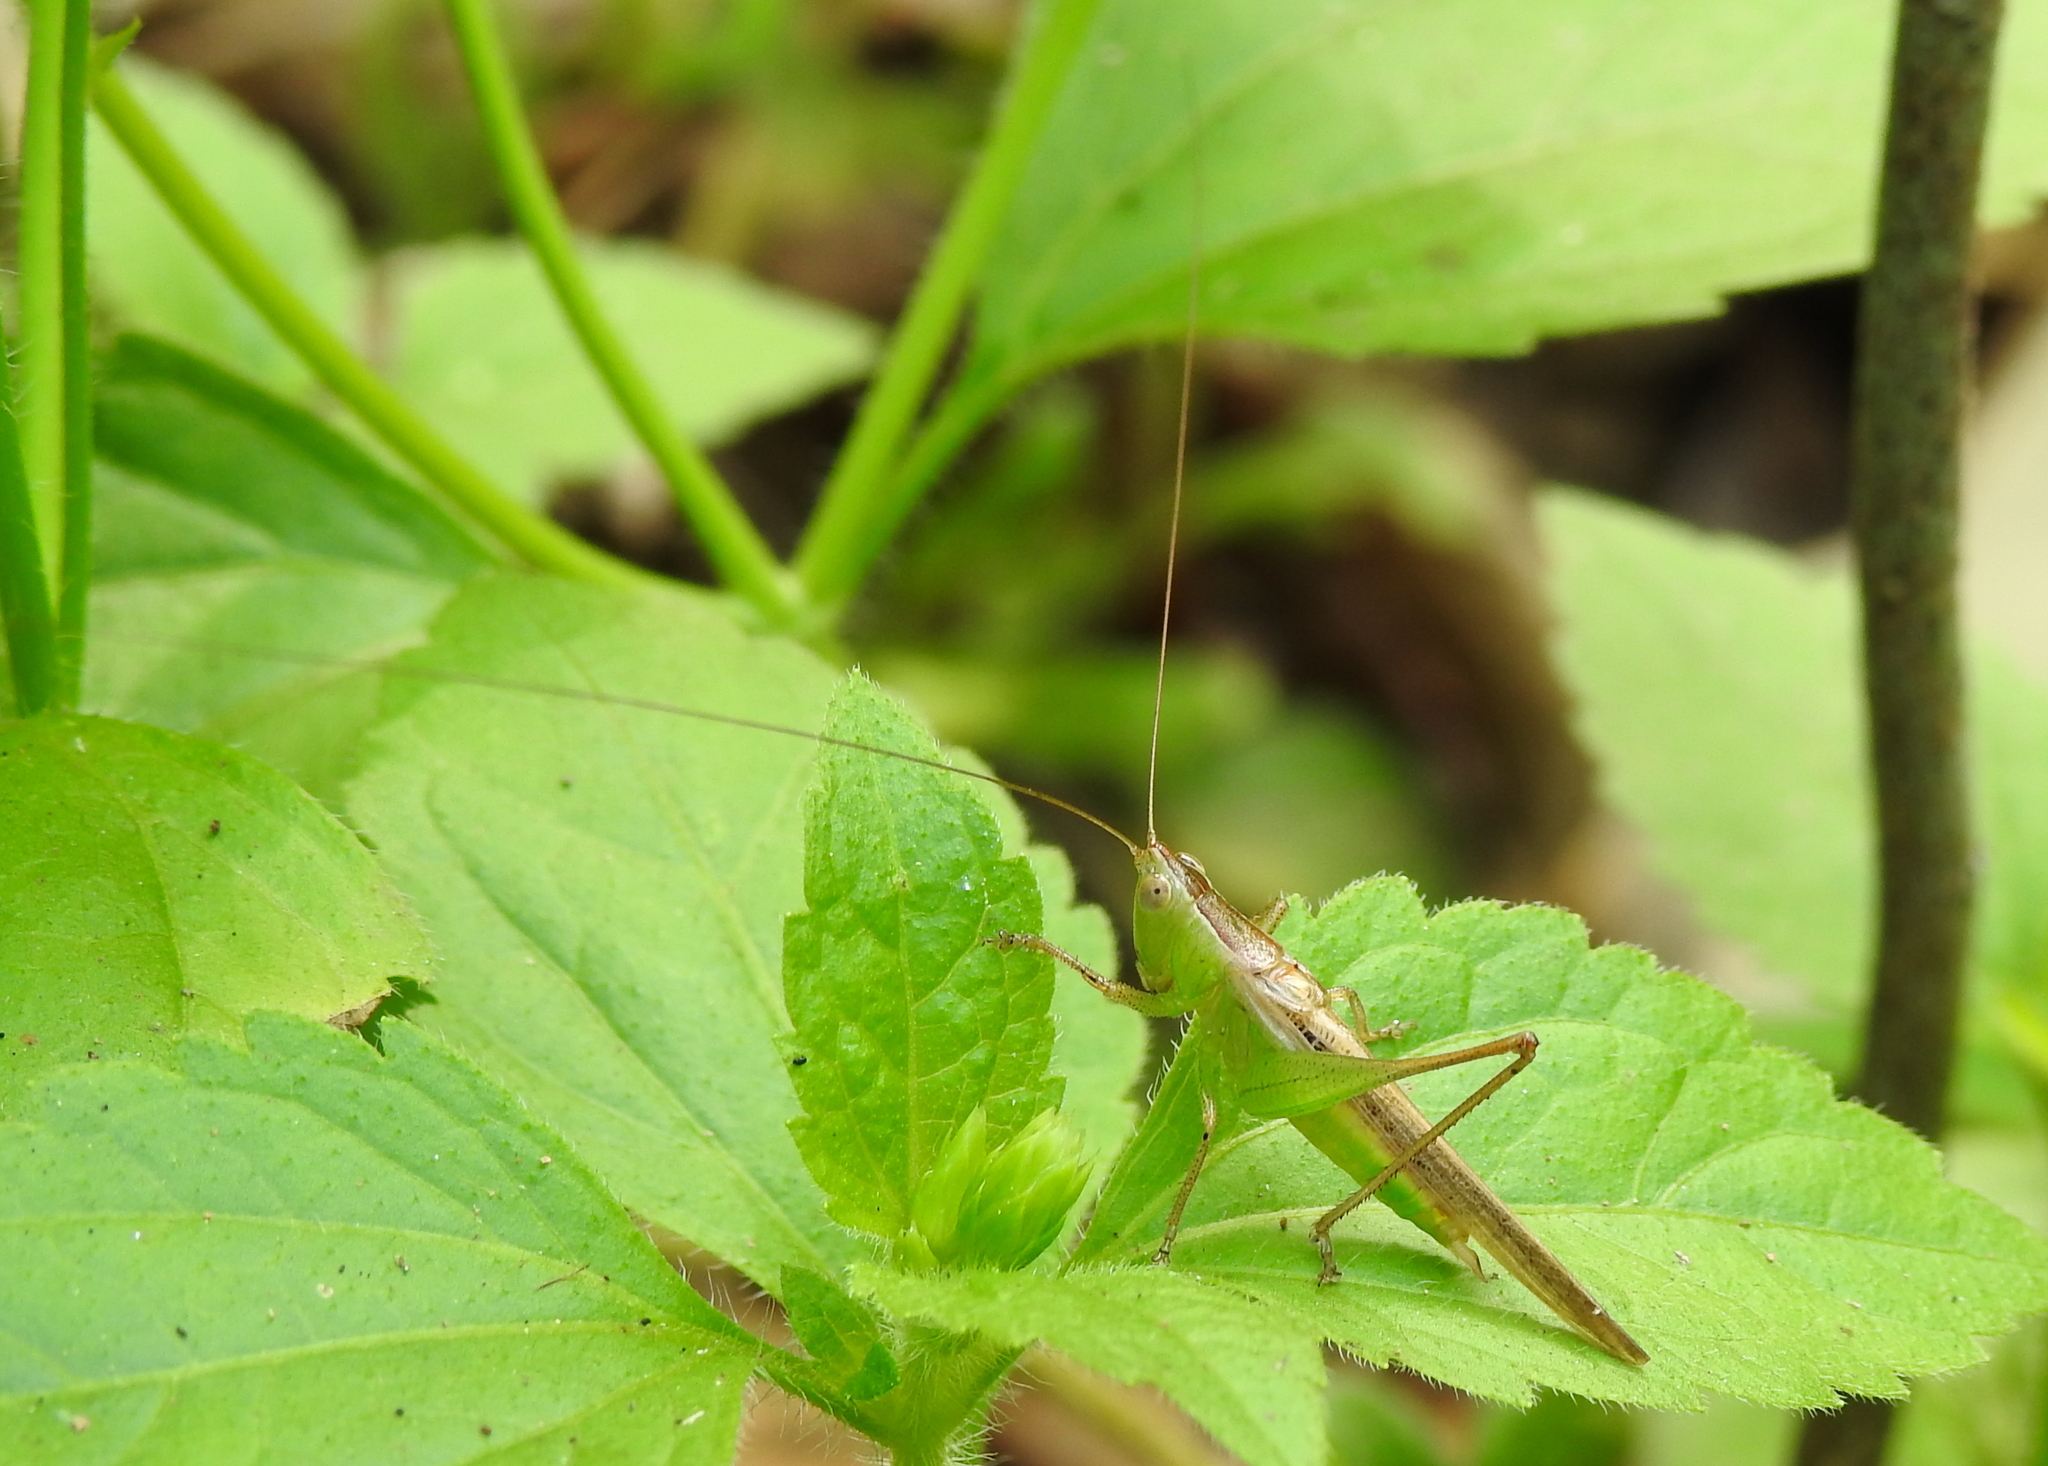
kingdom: Animalia
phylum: Arthropoda
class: Insecta
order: Orthoptera
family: Tettigoniidae
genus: Conocephalus
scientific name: Conocephalus maculatus
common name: Spotted meadow katydid
